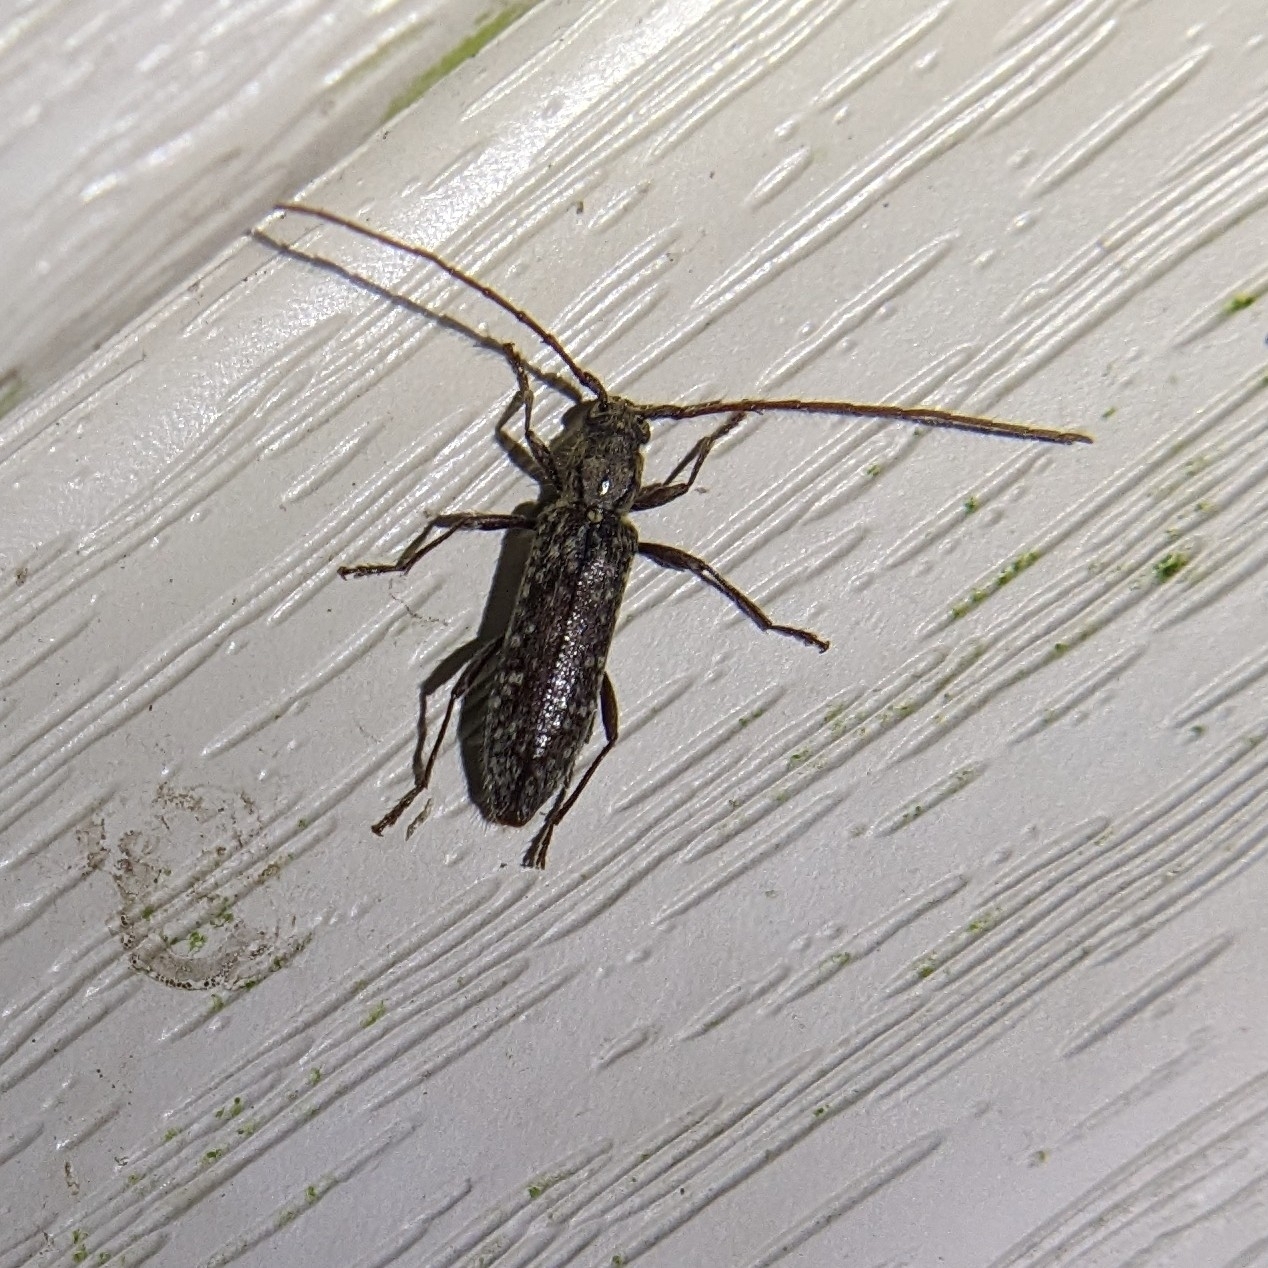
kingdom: Animalia
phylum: Arthropoda
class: Insecta
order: Coleoptera
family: Cerambycidae
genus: Anelaphus
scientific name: Anelaphus pumilus
